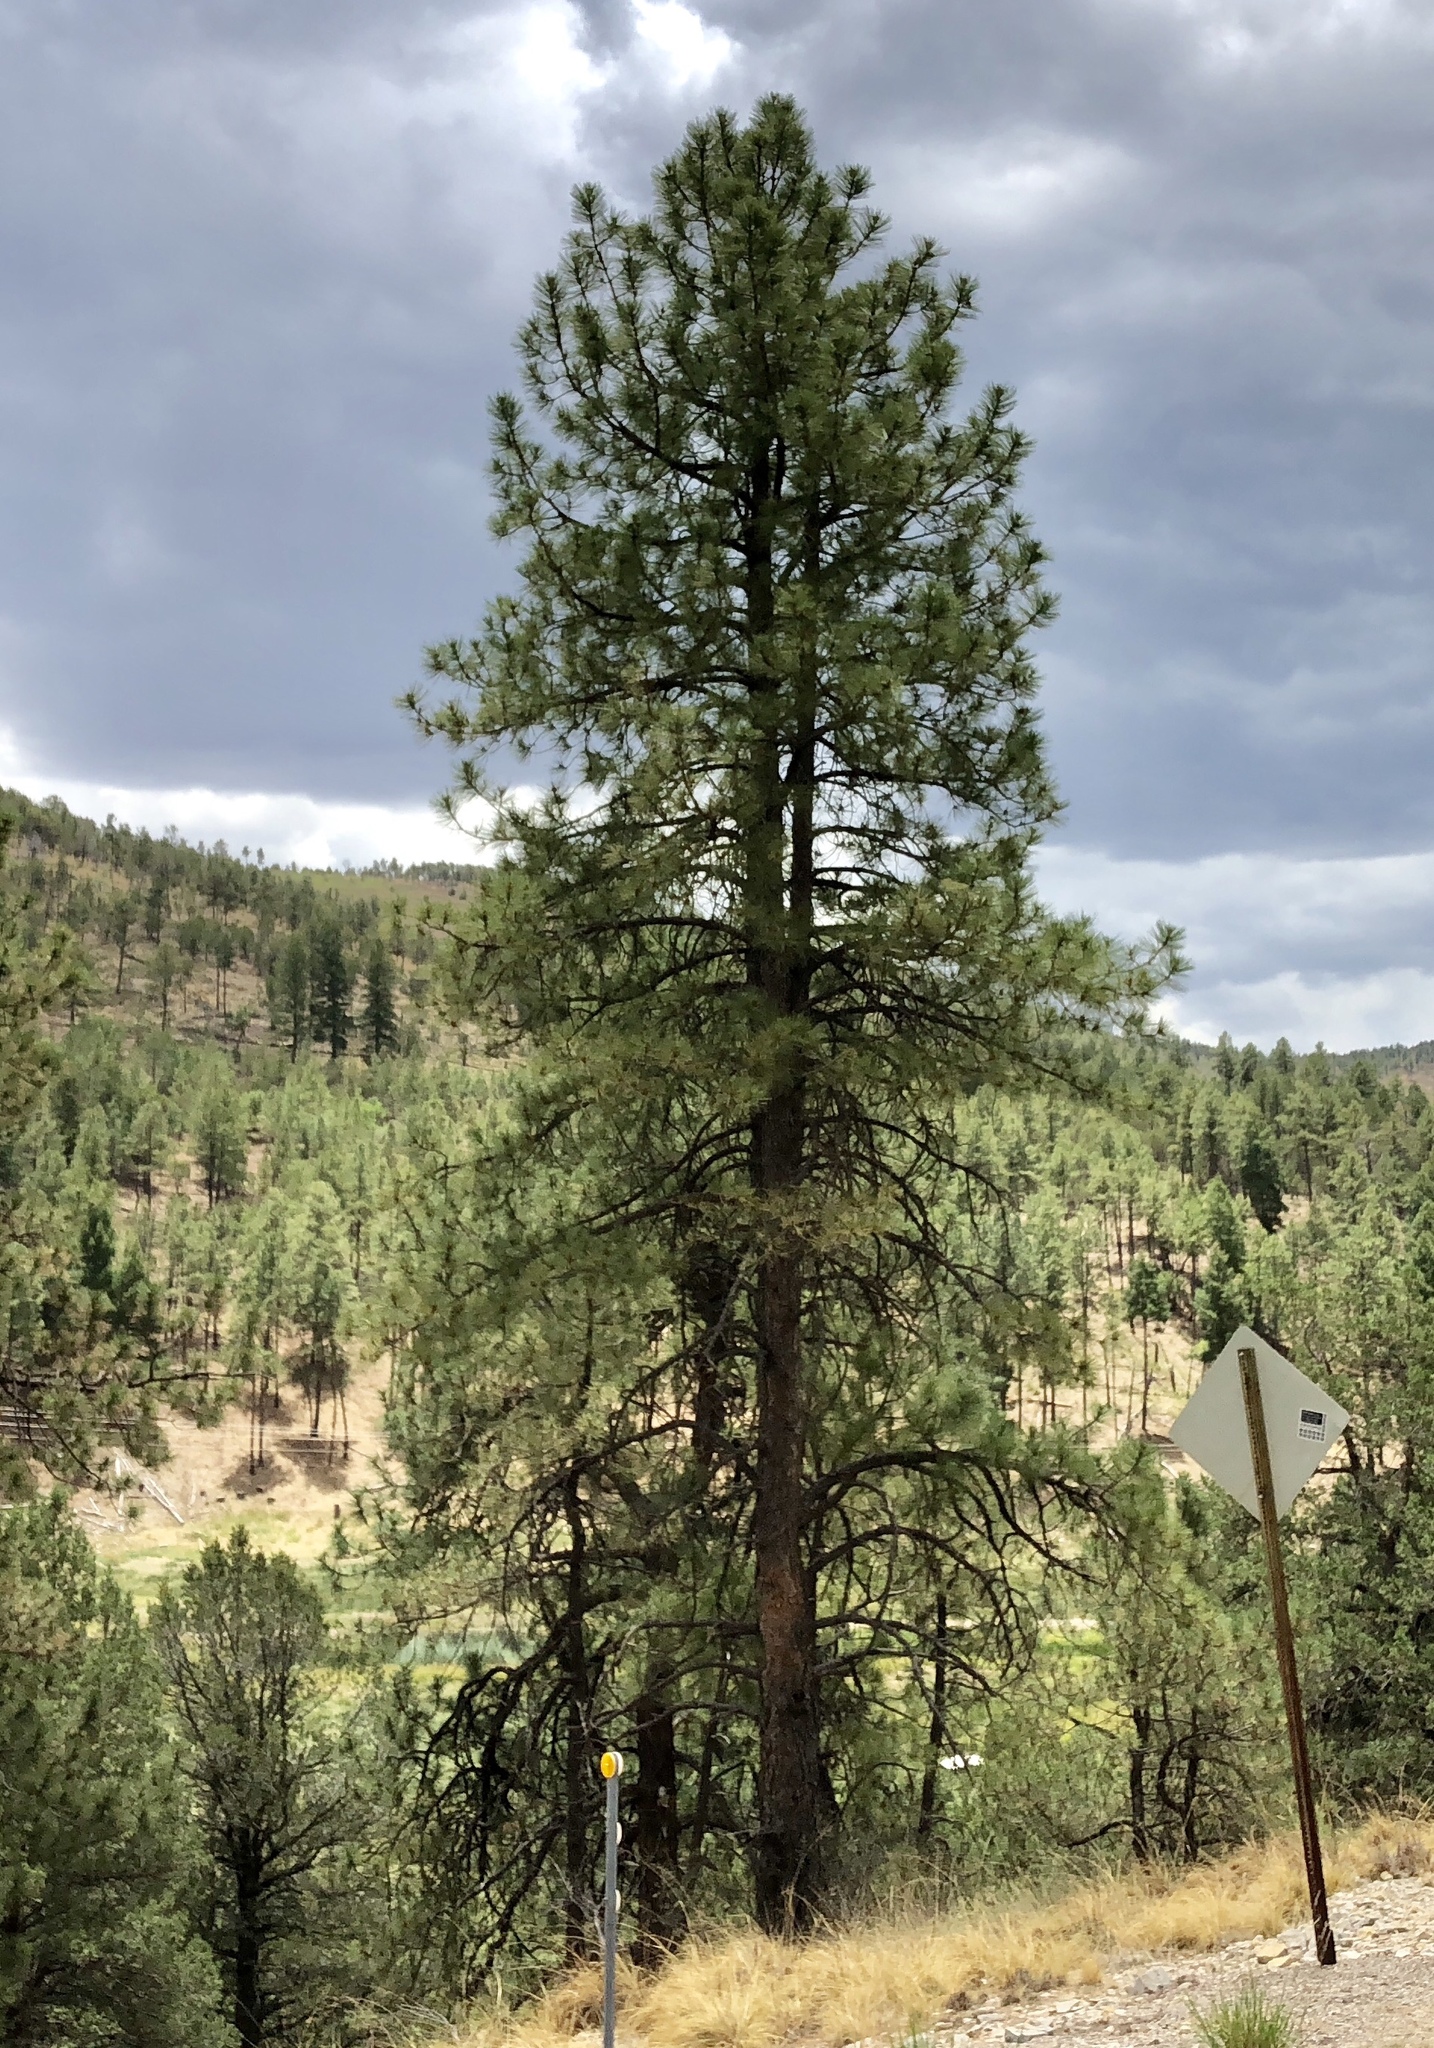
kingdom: Plantae
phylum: Tracheophyta
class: Pinopsida
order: Pinales
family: Pinaceae
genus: Pinus
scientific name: Pinus ponderosa
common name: Western yellow-pine
